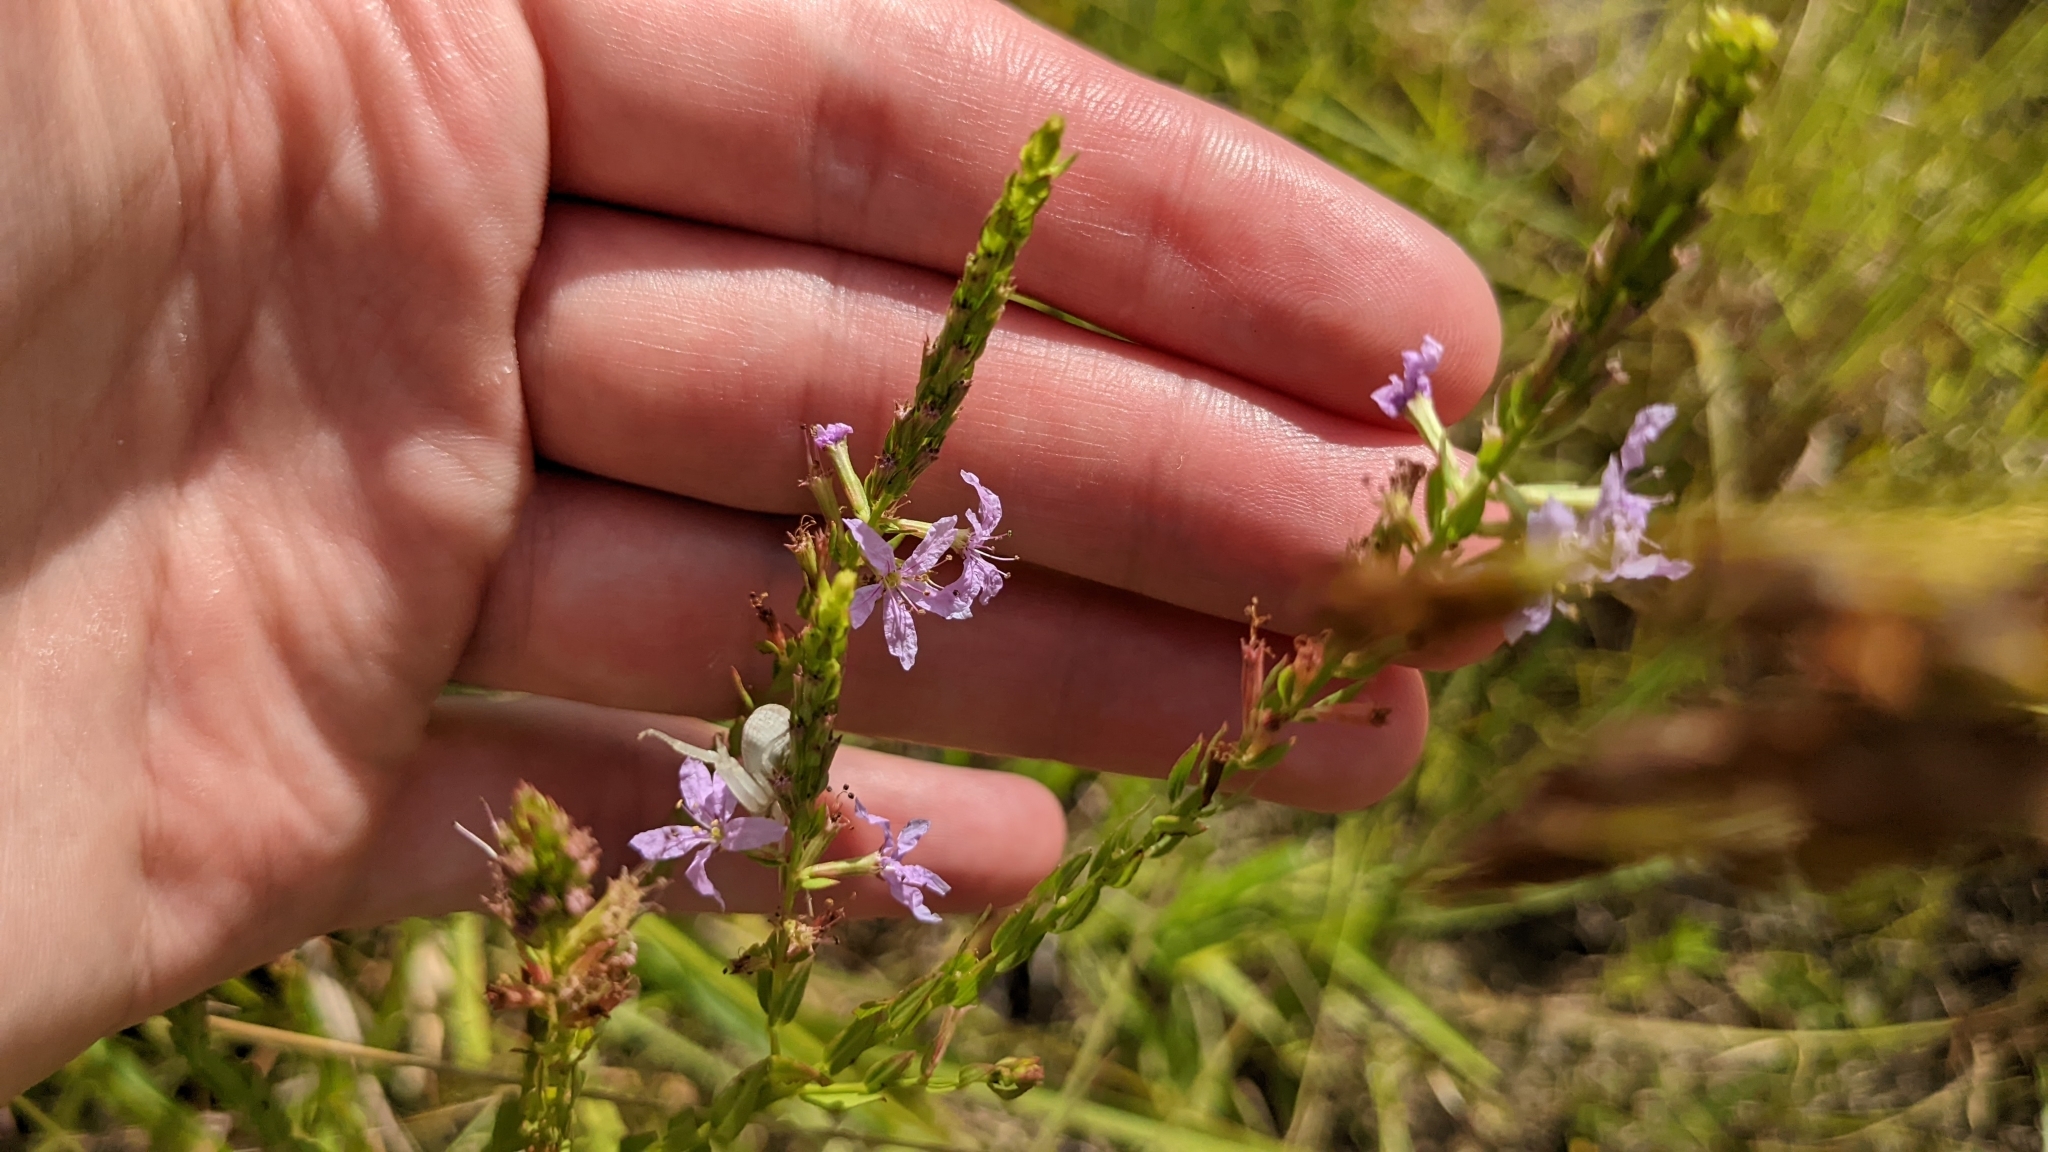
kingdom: Plantae
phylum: Tracheophyta
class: Magnoliopsida
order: Myrtales
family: Lythraceae
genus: Lythrum
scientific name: Lythrum alatum
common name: Winged loosestrife
